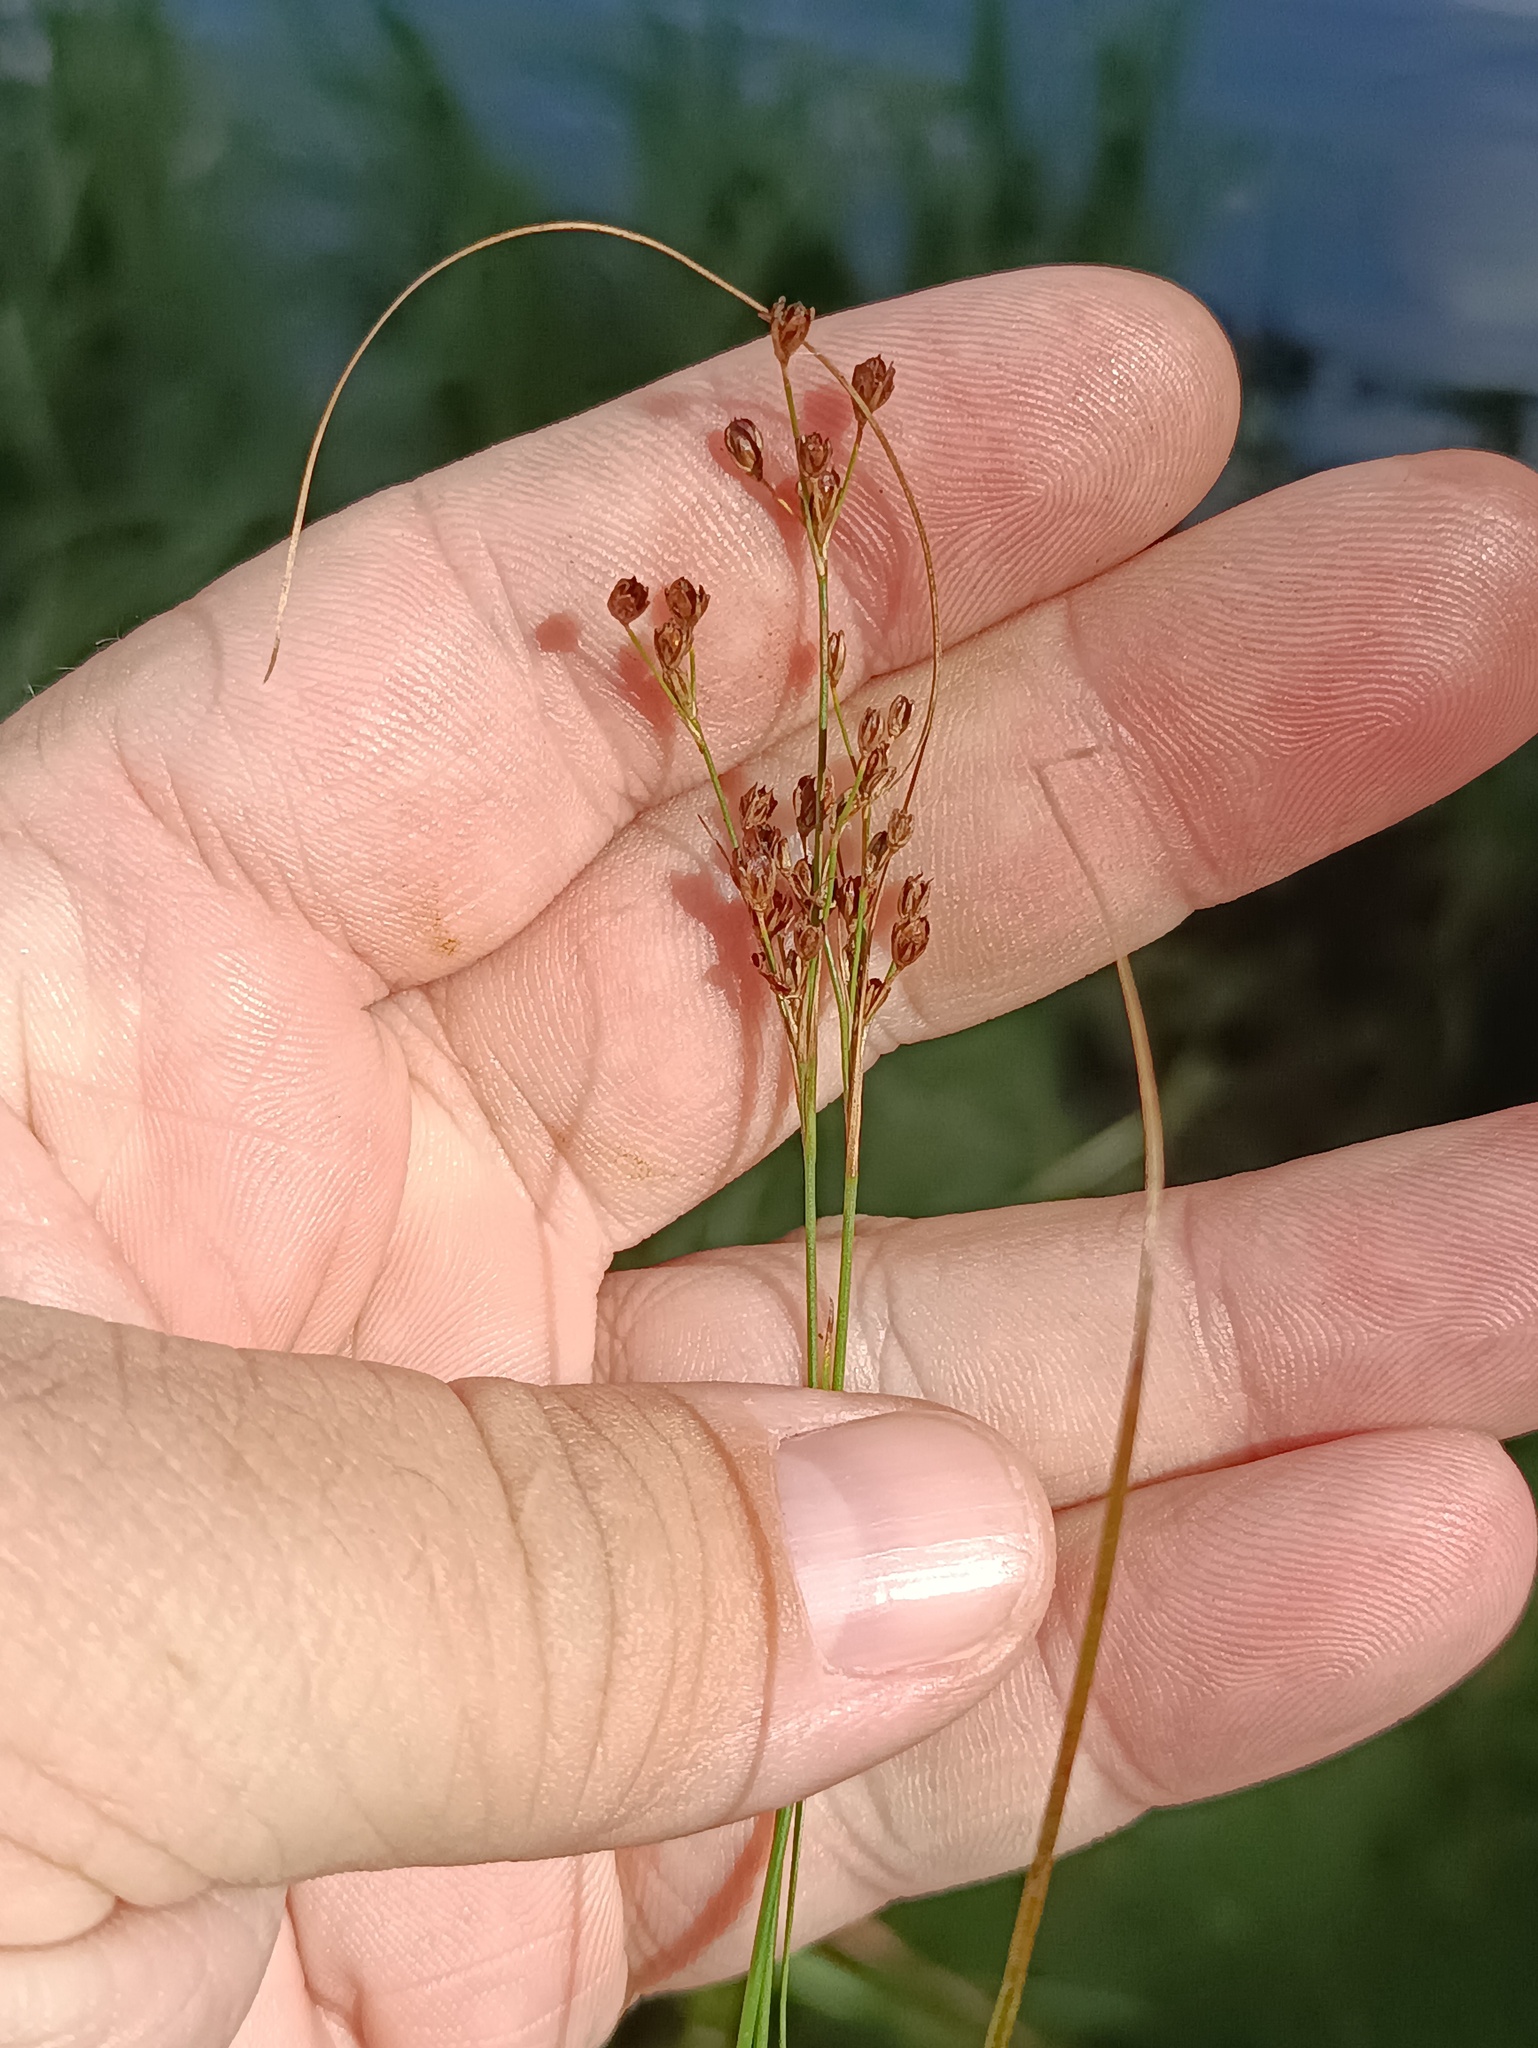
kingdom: Plantae
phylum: Tracheophyta
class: Liliopsida
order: Poales
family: Juncaceae
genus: Juncus
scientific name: Juncus compressus
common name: Round-fruited rush
